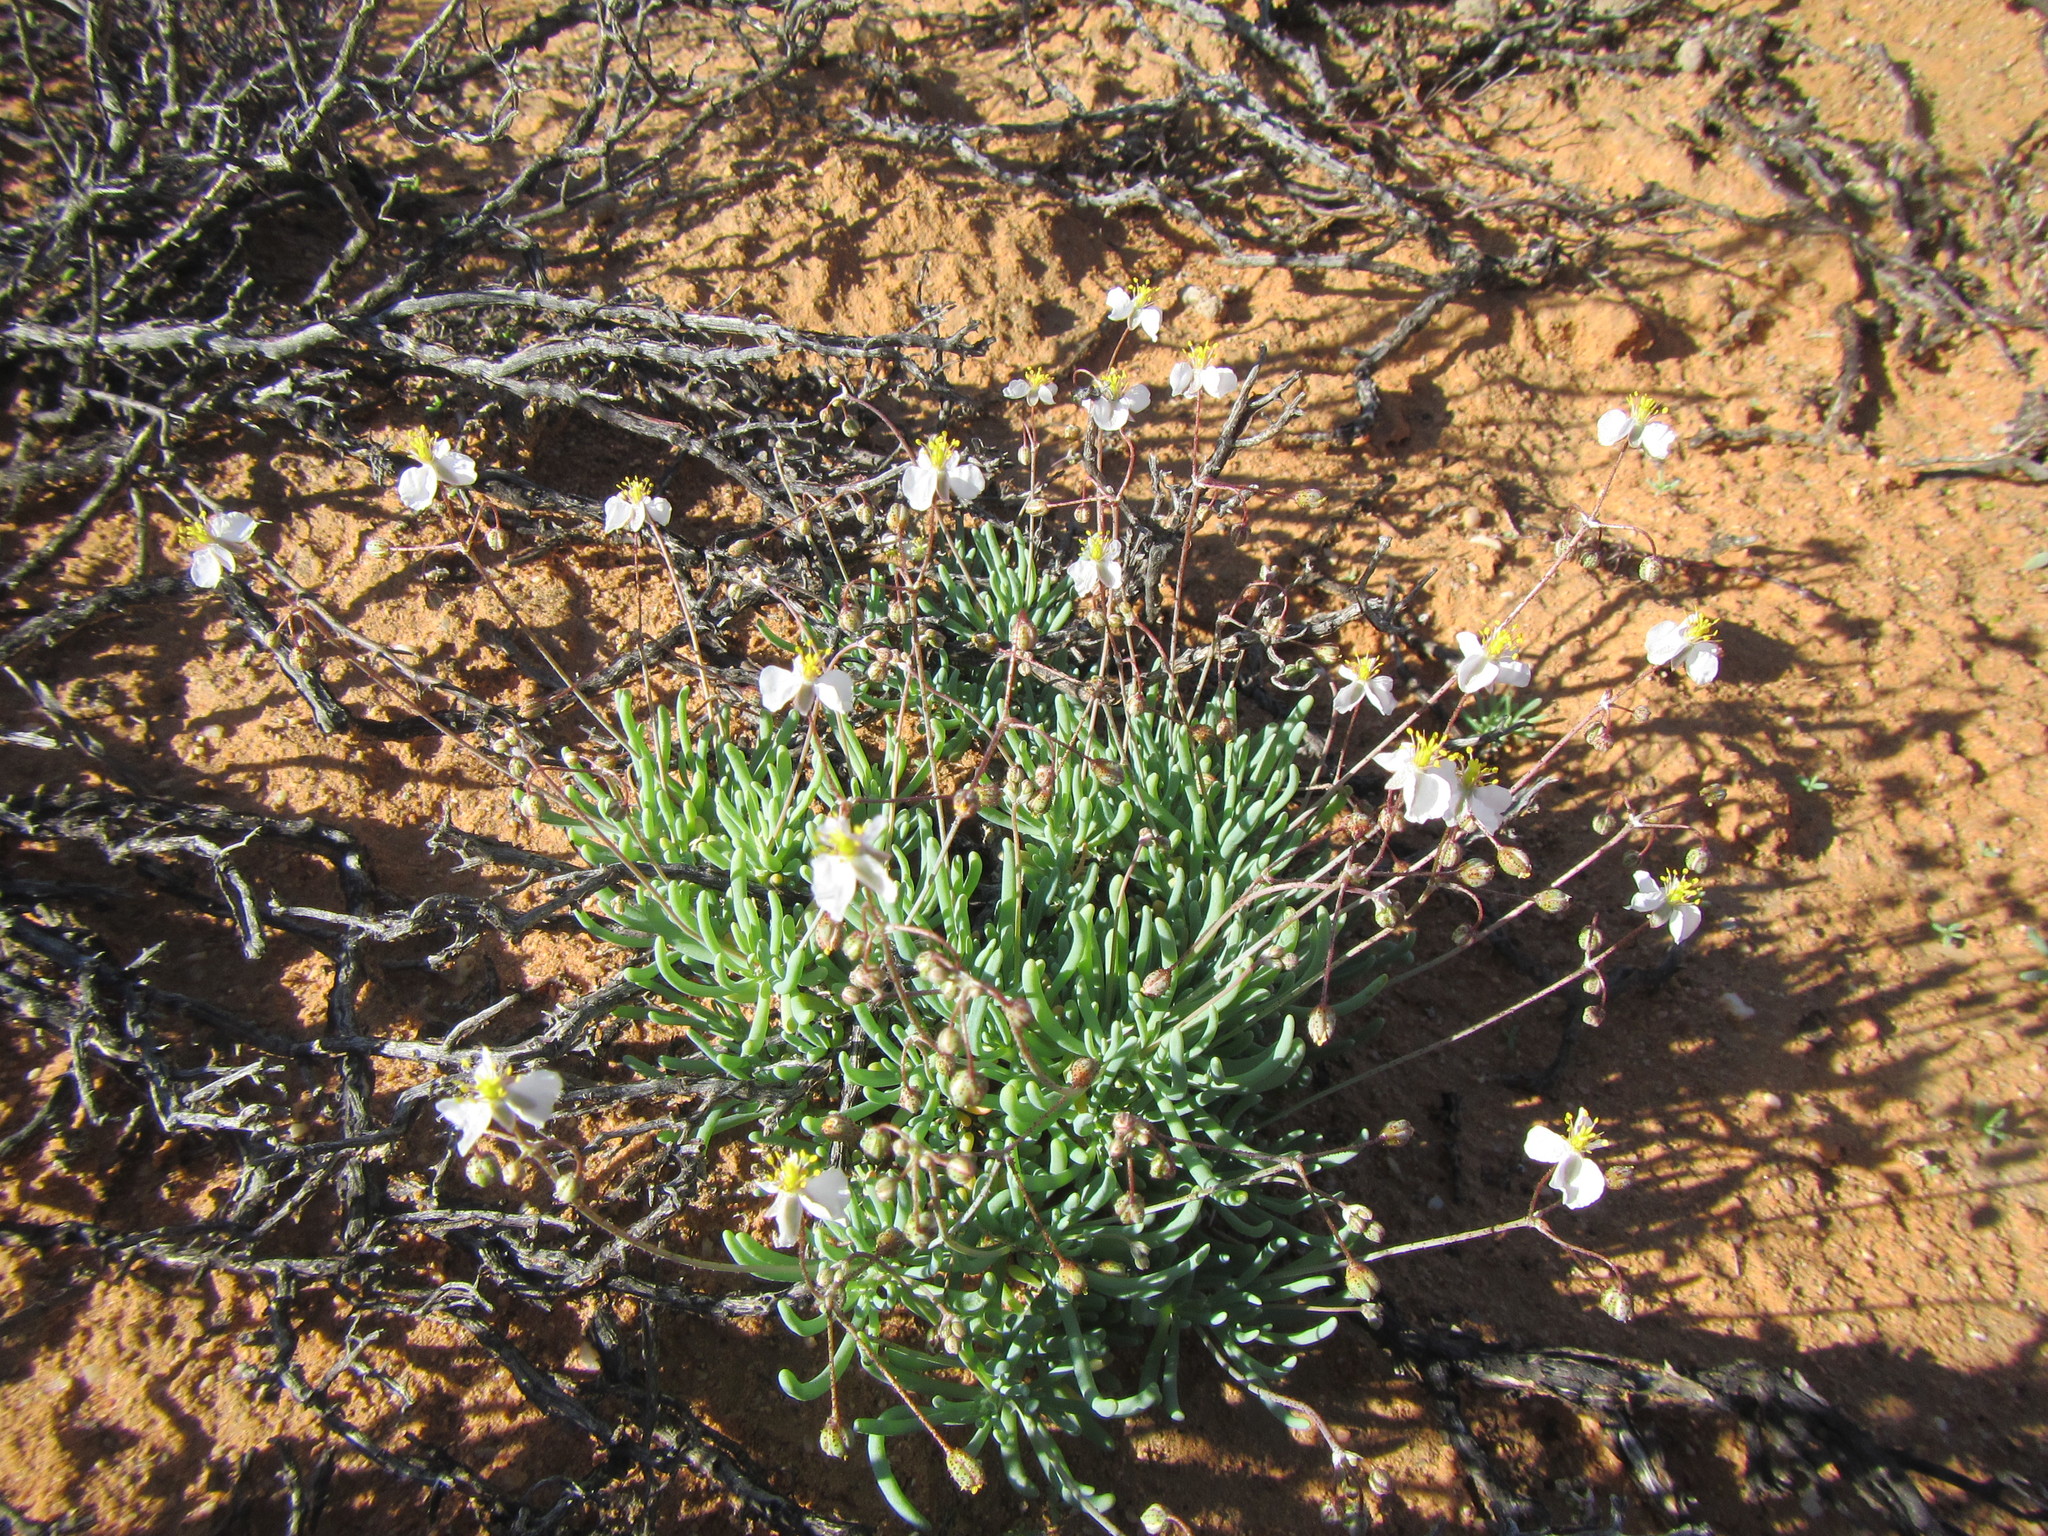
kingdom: Plantae
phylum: Tracheophyta
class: Magnoliopsida
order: Caryophyllales
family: Kewaceae
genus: Kewa
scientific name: Kewa salsoloides
